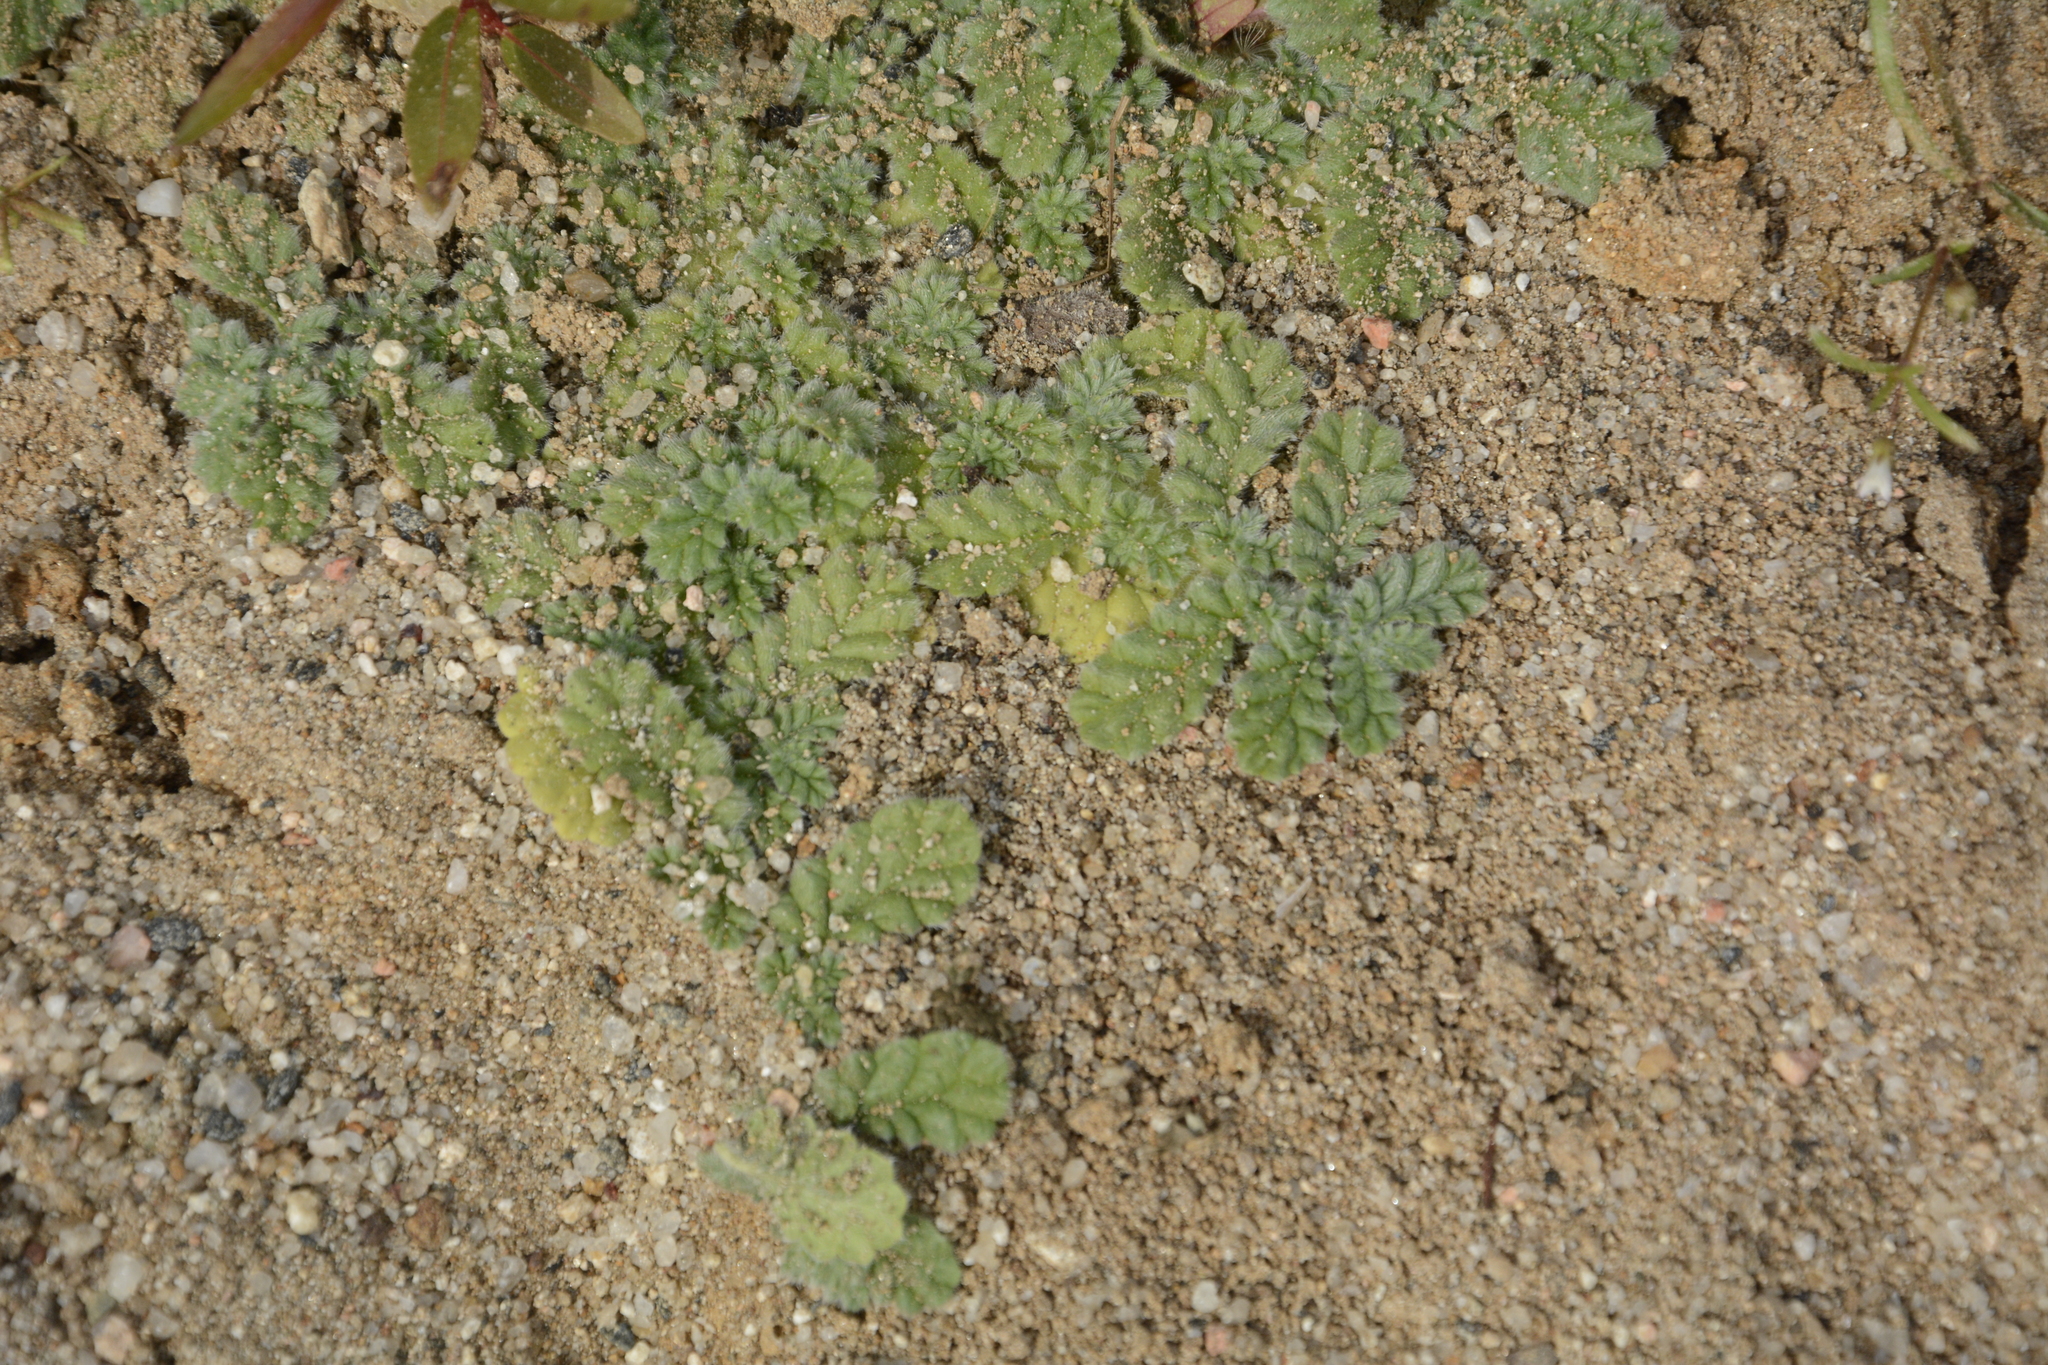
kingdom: Plantae
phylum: Tracheophyta
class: Magnoliopsida
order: Boraginales
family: Coldeniaceae
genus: Coldenia
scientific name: Coldenia procumbens
